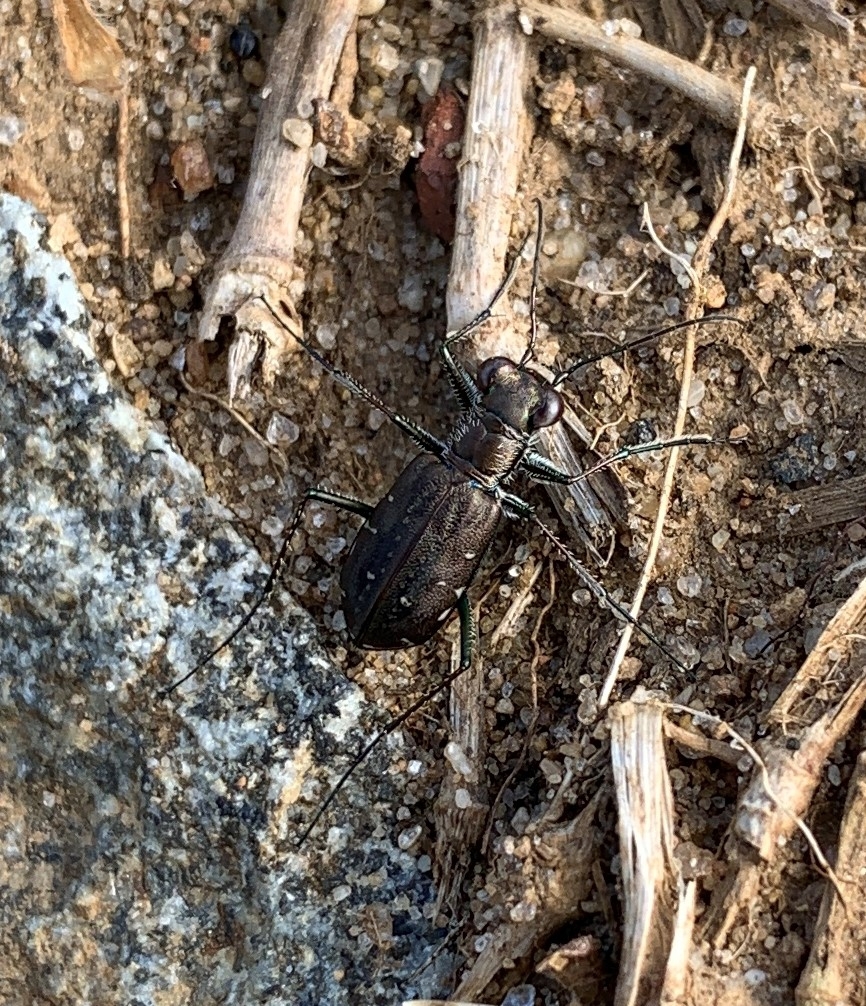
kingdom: Animalia
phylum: Arthropoda
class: Insecta
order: Coleoptera
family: Carabidae
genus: Cicindela
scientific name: Cicindela punctulata
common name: Punctured tiger beetle
